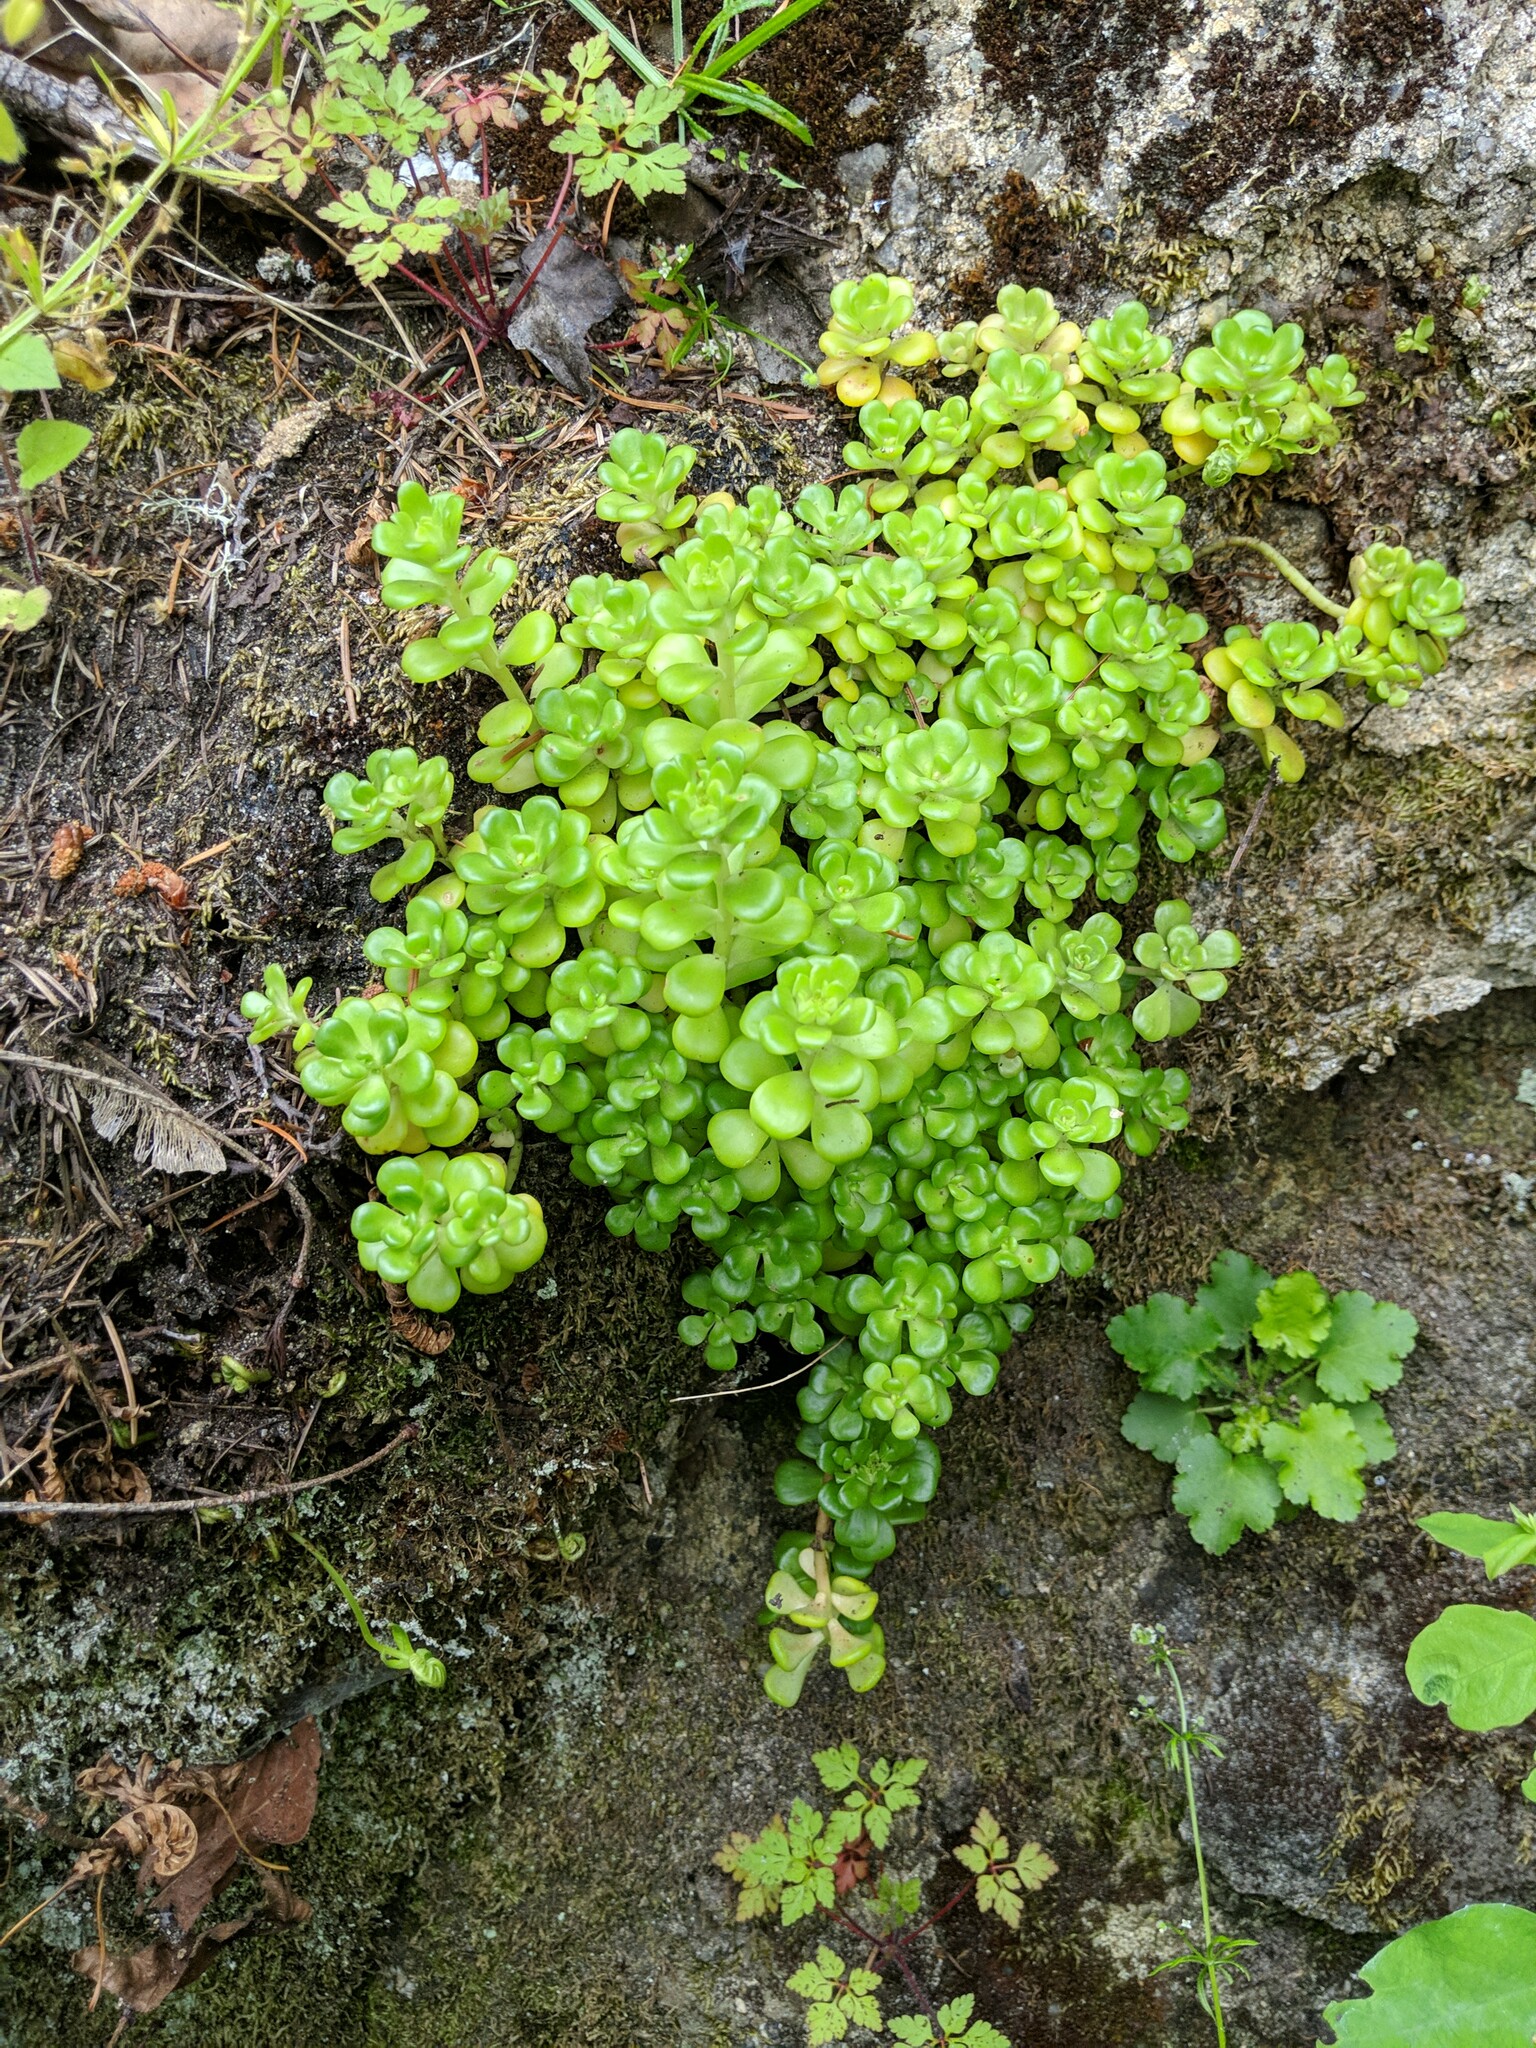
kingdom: Plantae
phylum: Tracheophyta
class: Magnoliopsida
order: Saxifragales
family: Crassulaceae
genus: Sedum
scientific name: Sedum oreganum
